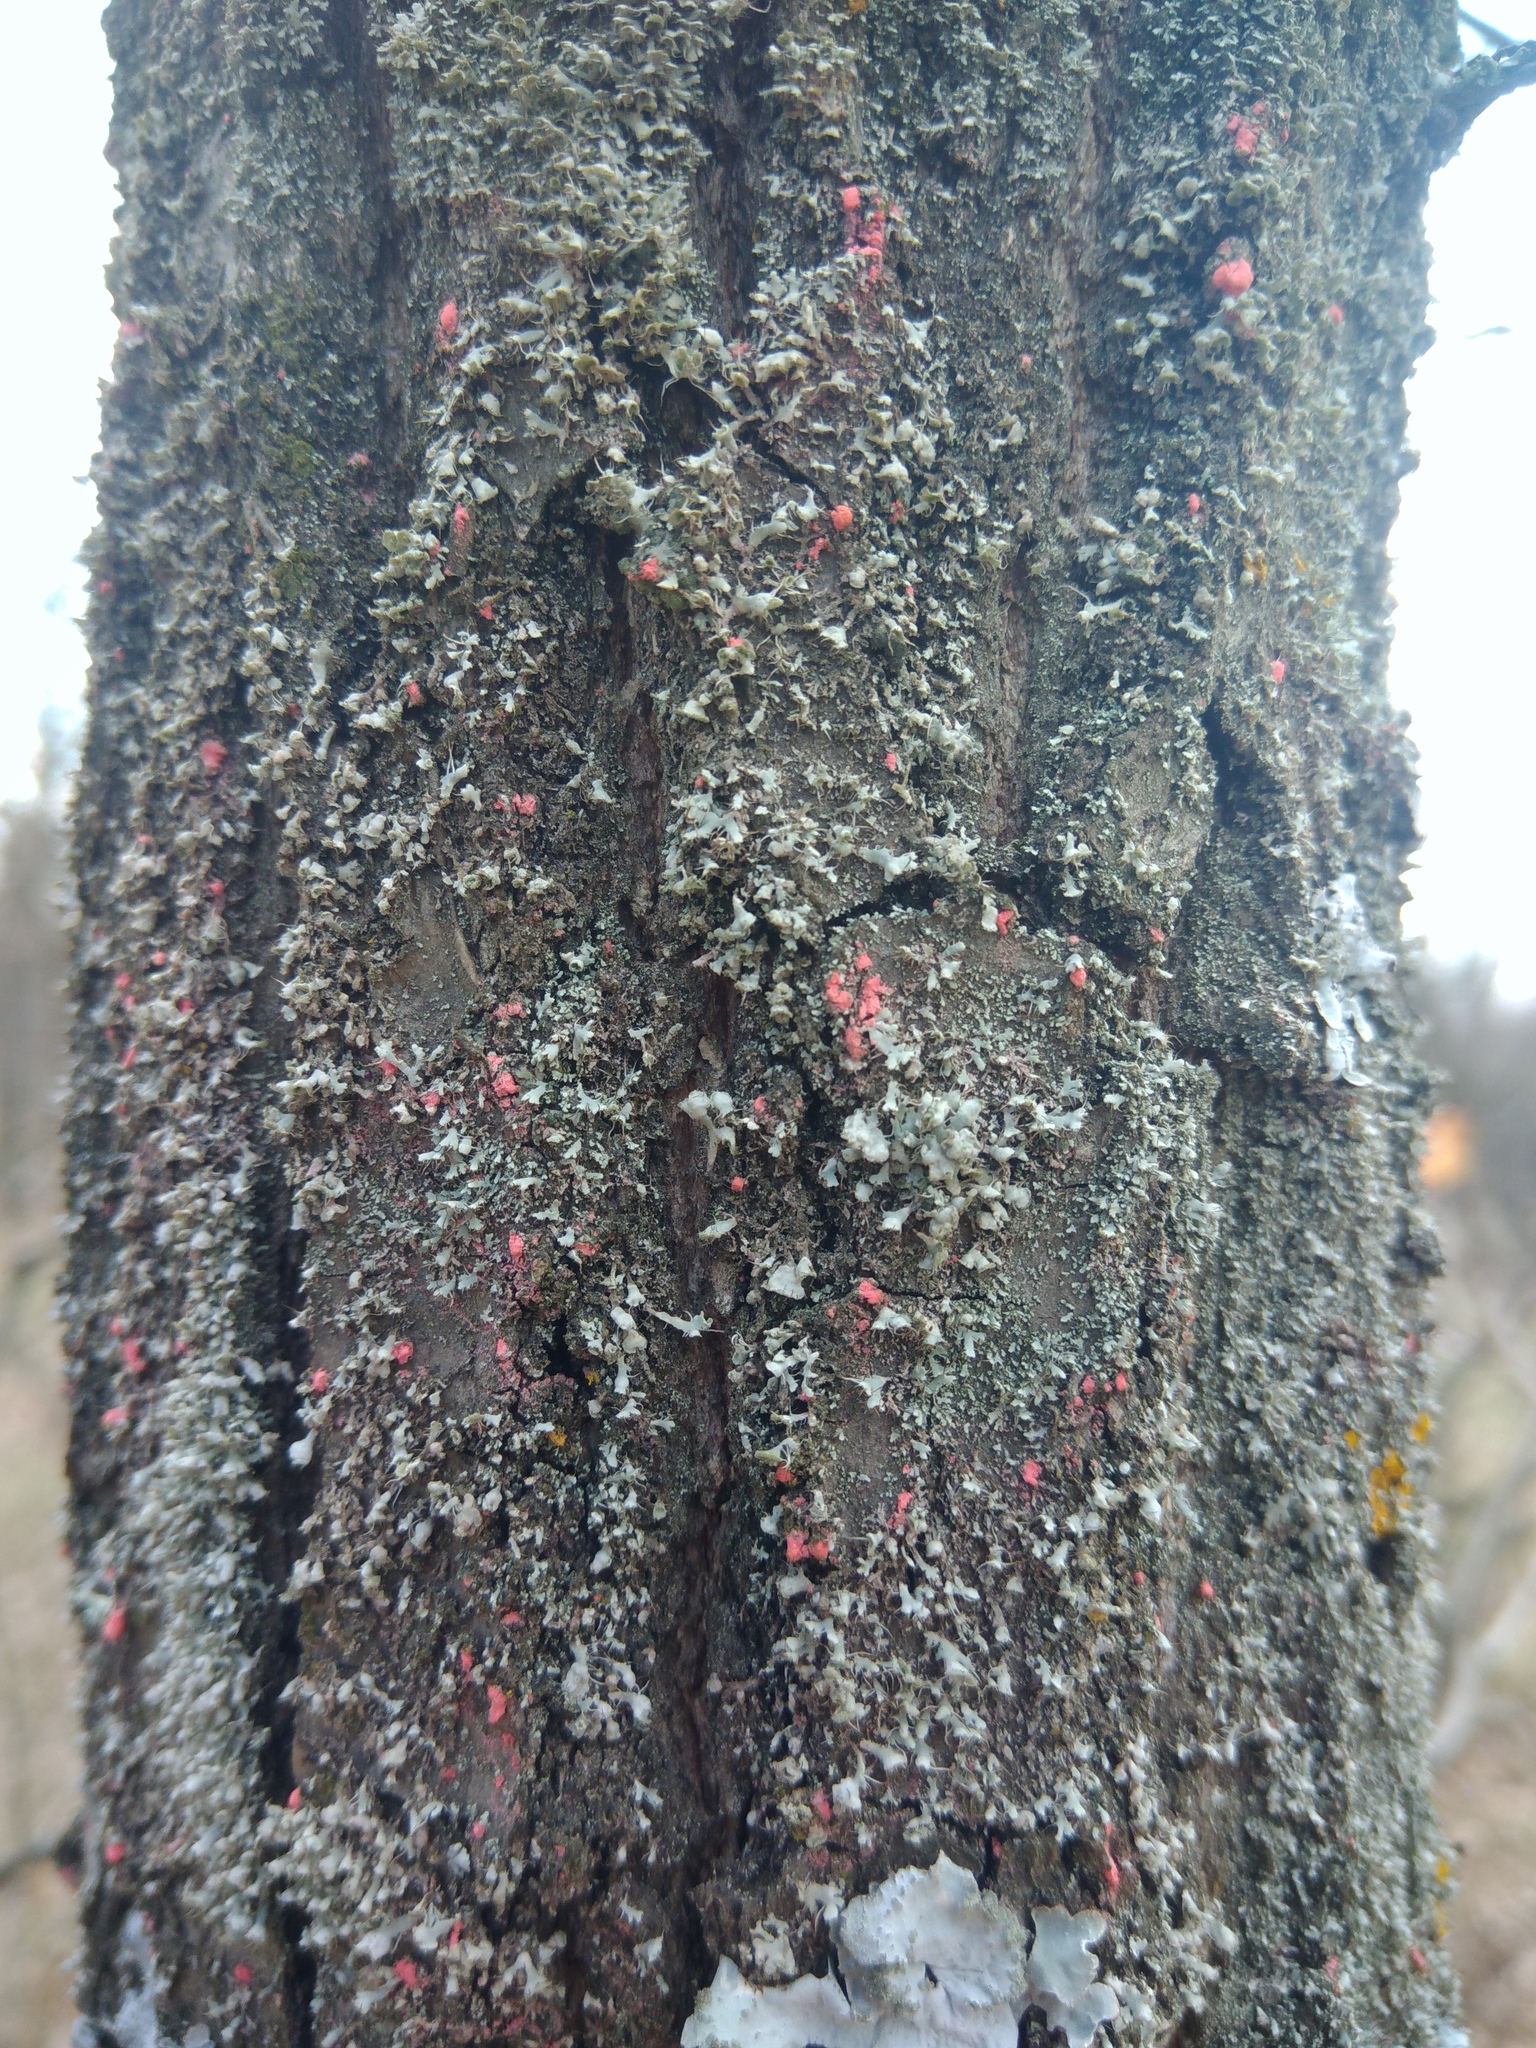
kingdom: Fungi
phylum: Ascomycota
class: Sordariomycetes
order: Hypocreales
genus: Illosporiopsis
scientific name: Illosporiopsis christiansenii
